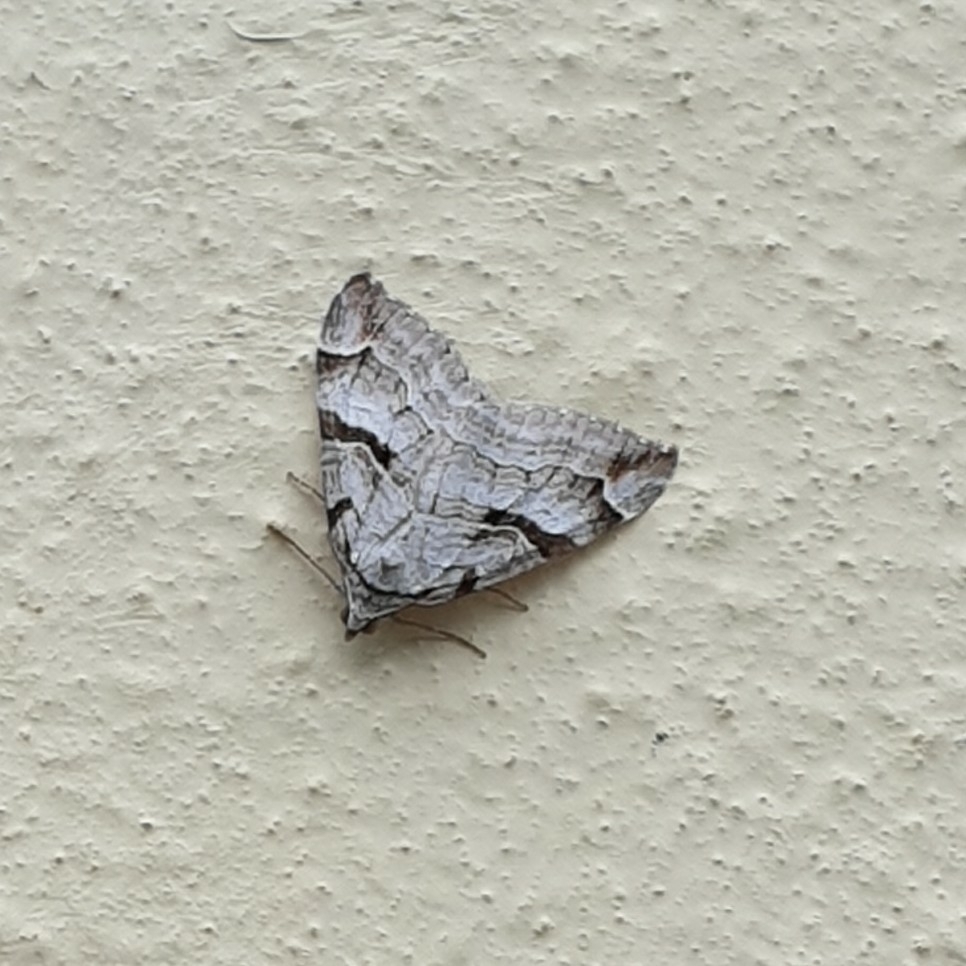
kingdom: Animalia
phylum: Arthropoda
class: Insecta
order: Lepidoptera
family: Geometridae
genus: Aplocera
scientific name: Aplocera praeformata
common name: Purple treble-bar
